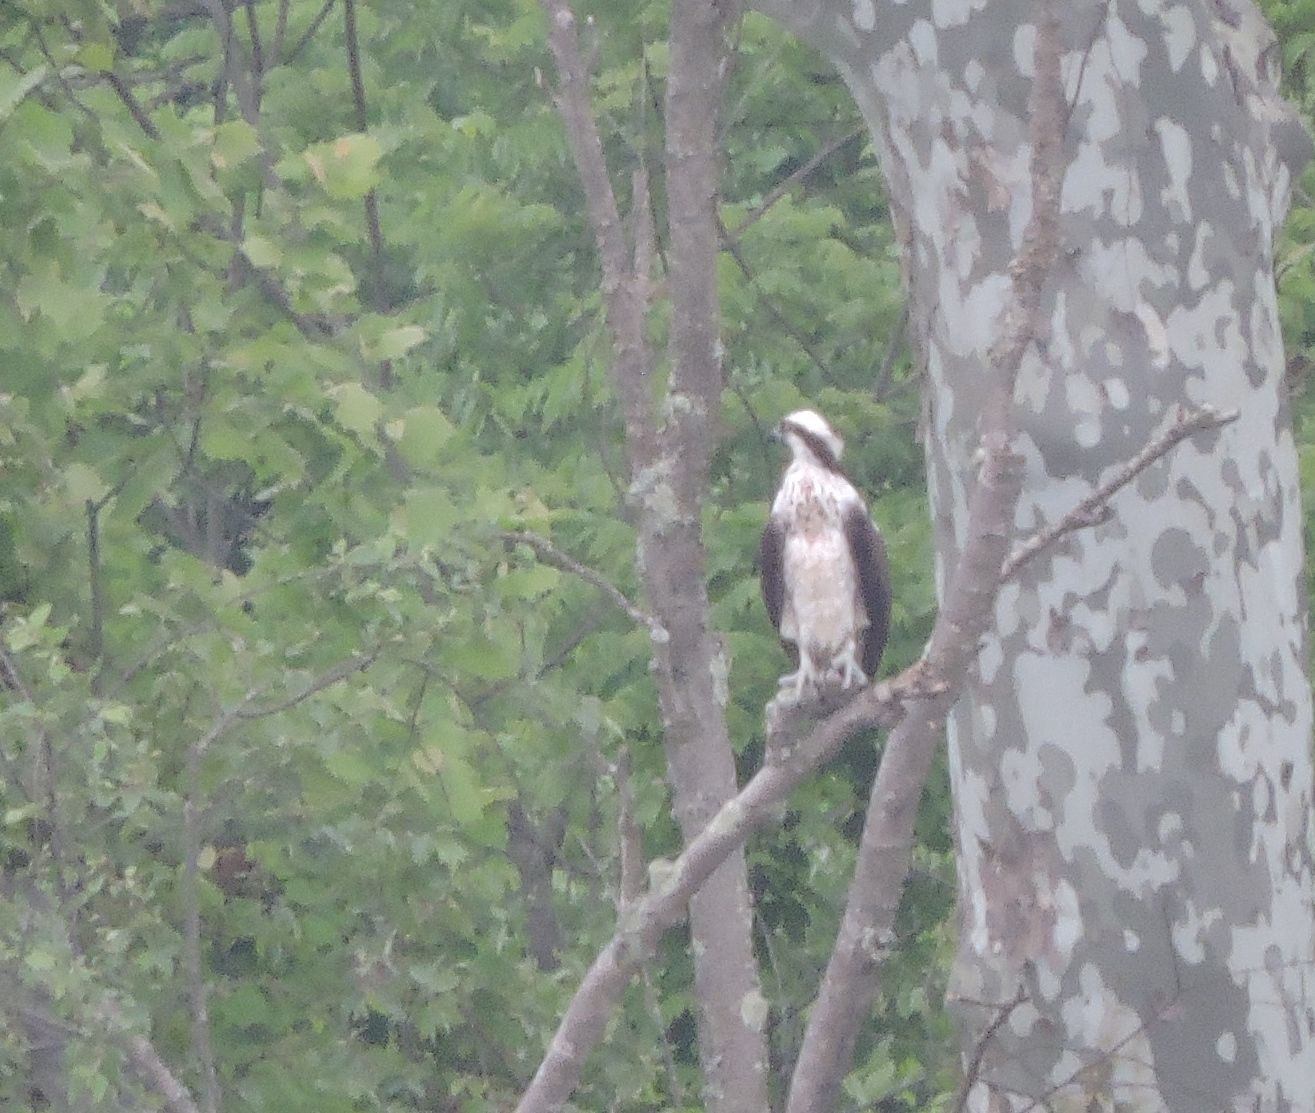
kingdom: Animalia
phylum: Chordata
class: Aves
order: Accipitriformes
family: Pandionidae
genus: Pandion
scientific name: Pandion haliaetus
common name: Osprey
